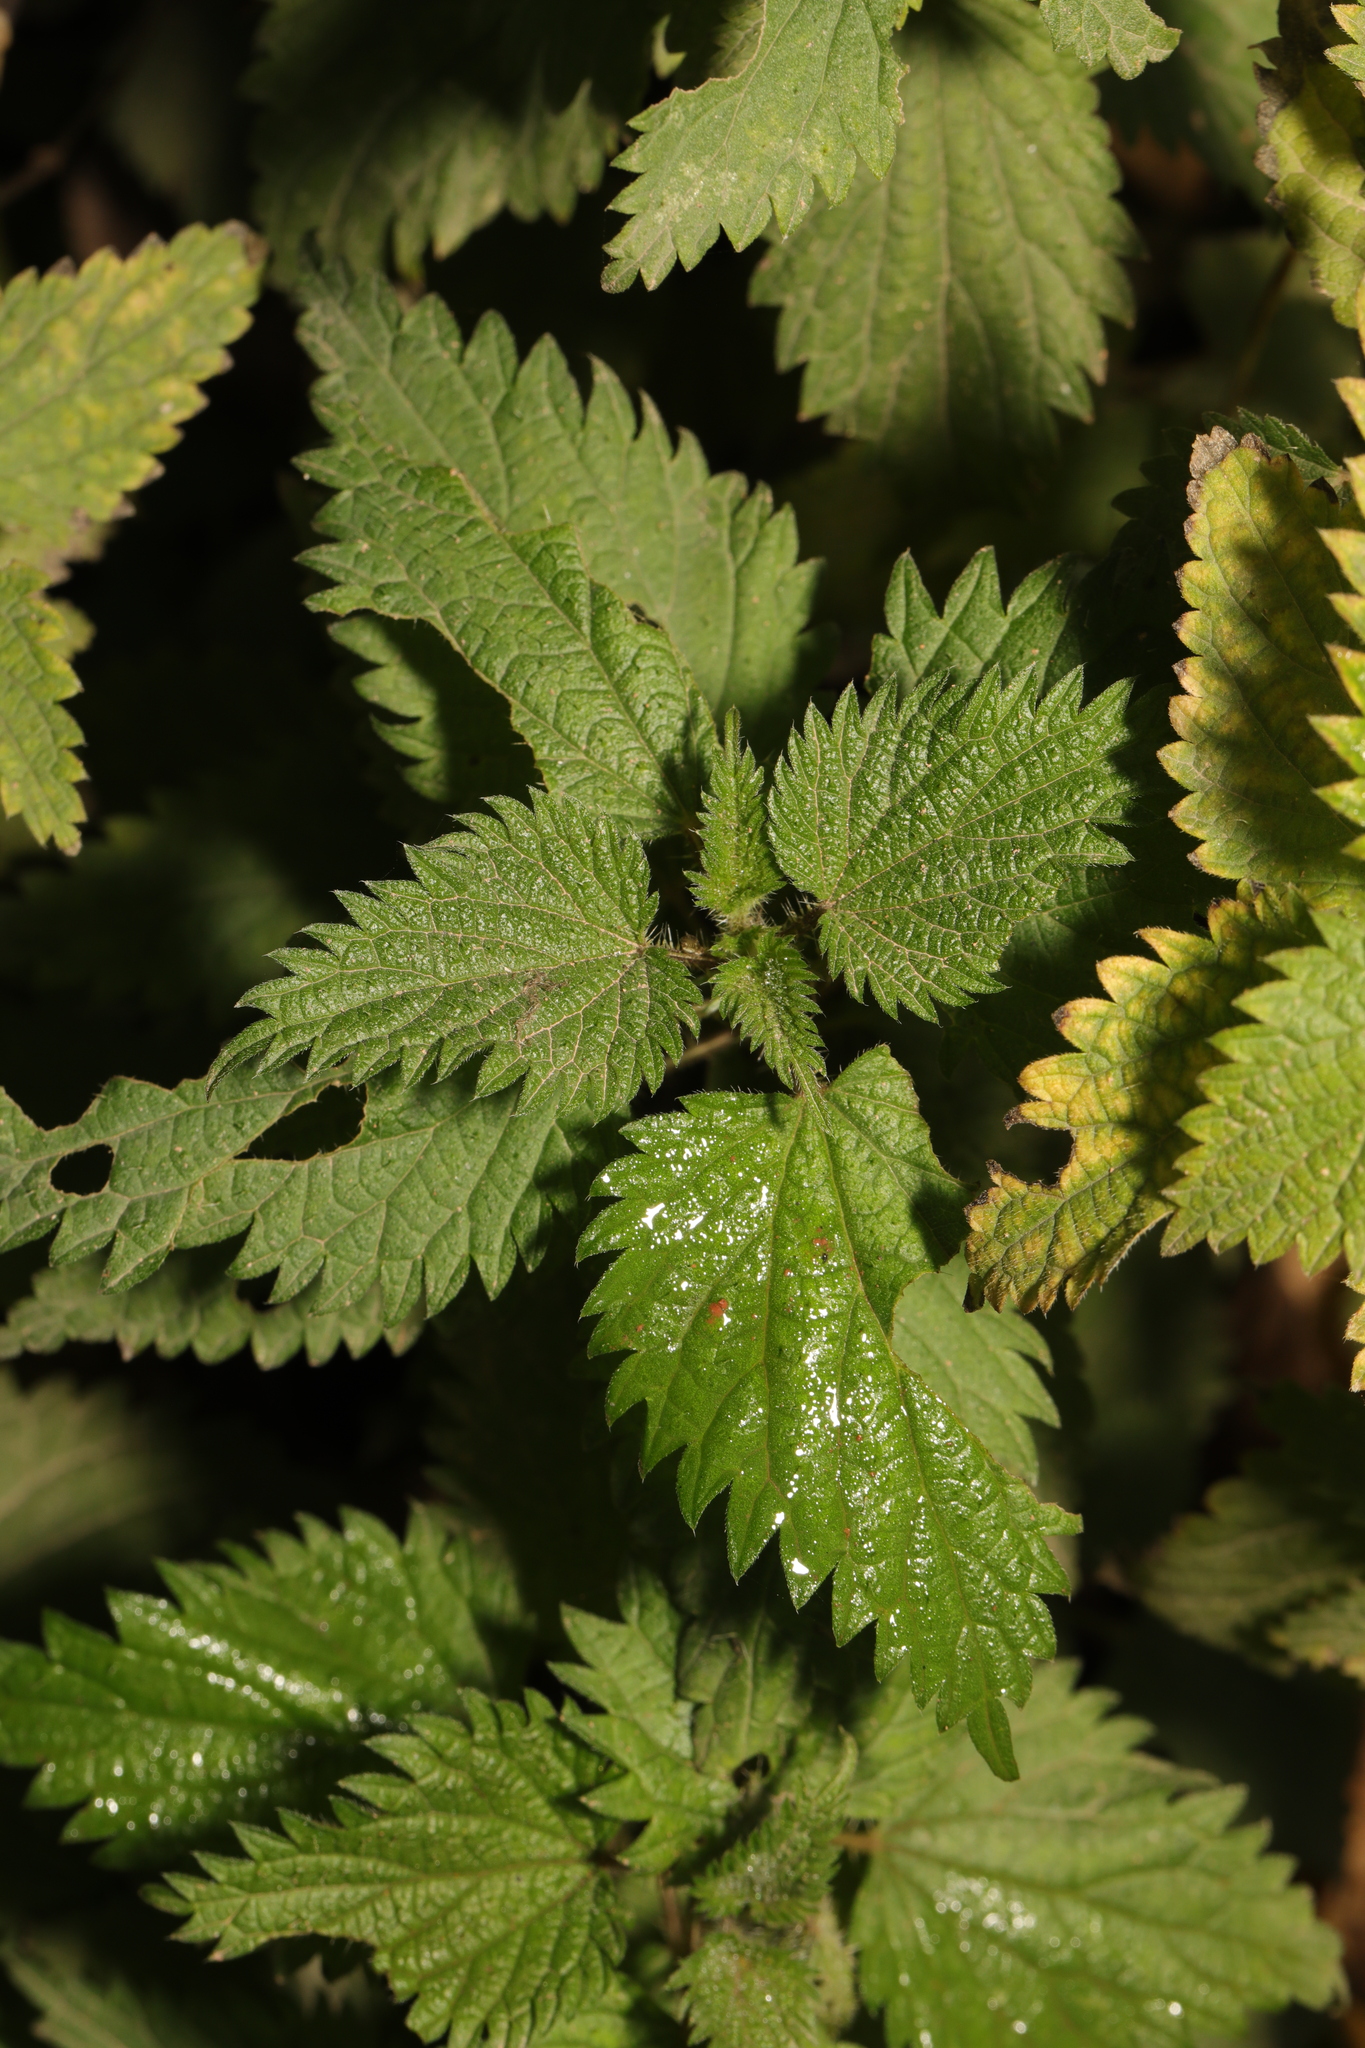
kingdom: Plantae
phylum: Tracheophyta
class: Magnoliopsida
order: Rosales
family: Urticaceae
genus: Urtica
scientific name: Urtica dioica
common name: Common nettle
